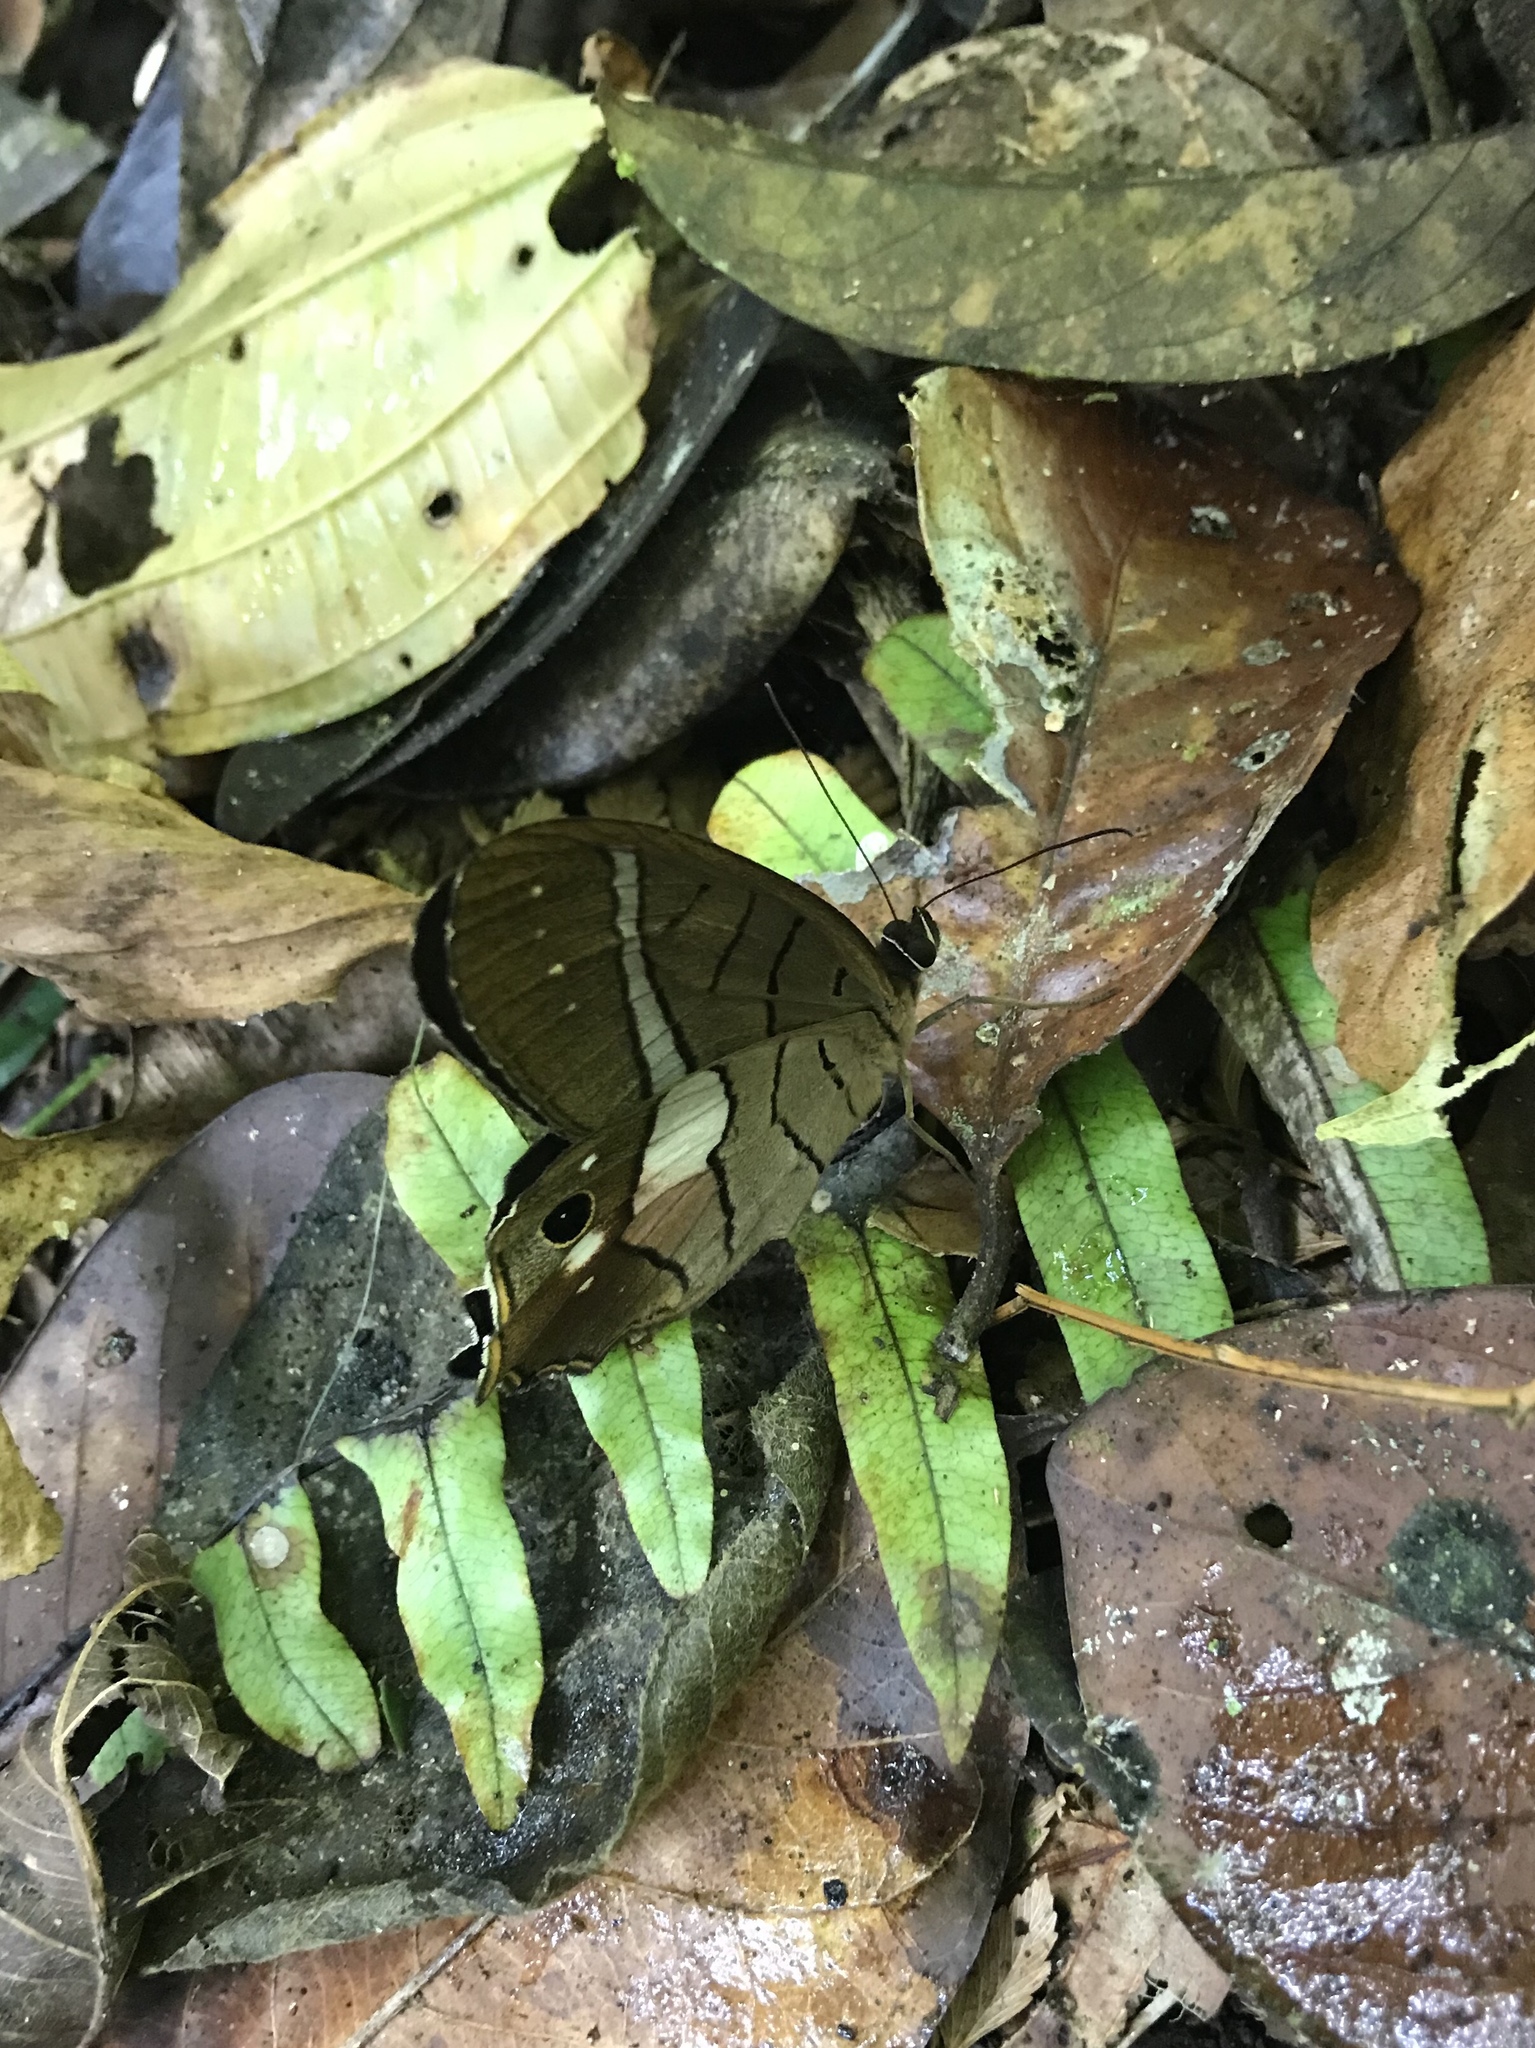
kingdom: Animalia
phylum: Arthropoda
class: Insecta
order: Lepidoptera
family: Nymphalidae
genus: Pierella
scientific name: Pierella helvina
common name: Red-washed satyr
